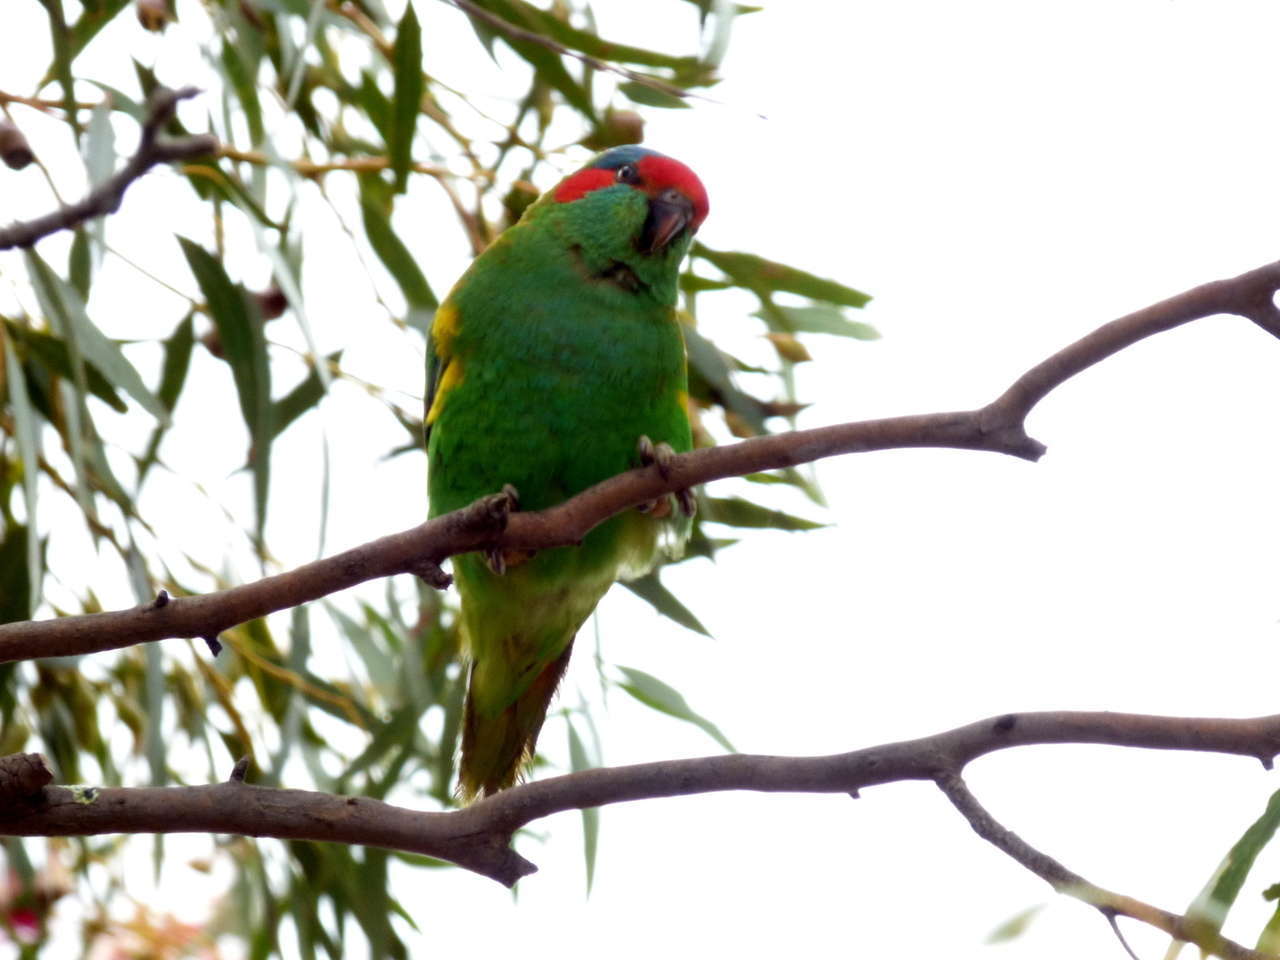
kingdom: Animalia
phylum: Chordata
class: Aves
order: Psittaciformes
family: Psittacidae
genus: Glossopsitta
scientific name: Glossopsitta concinna
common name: Musk lorikeet
